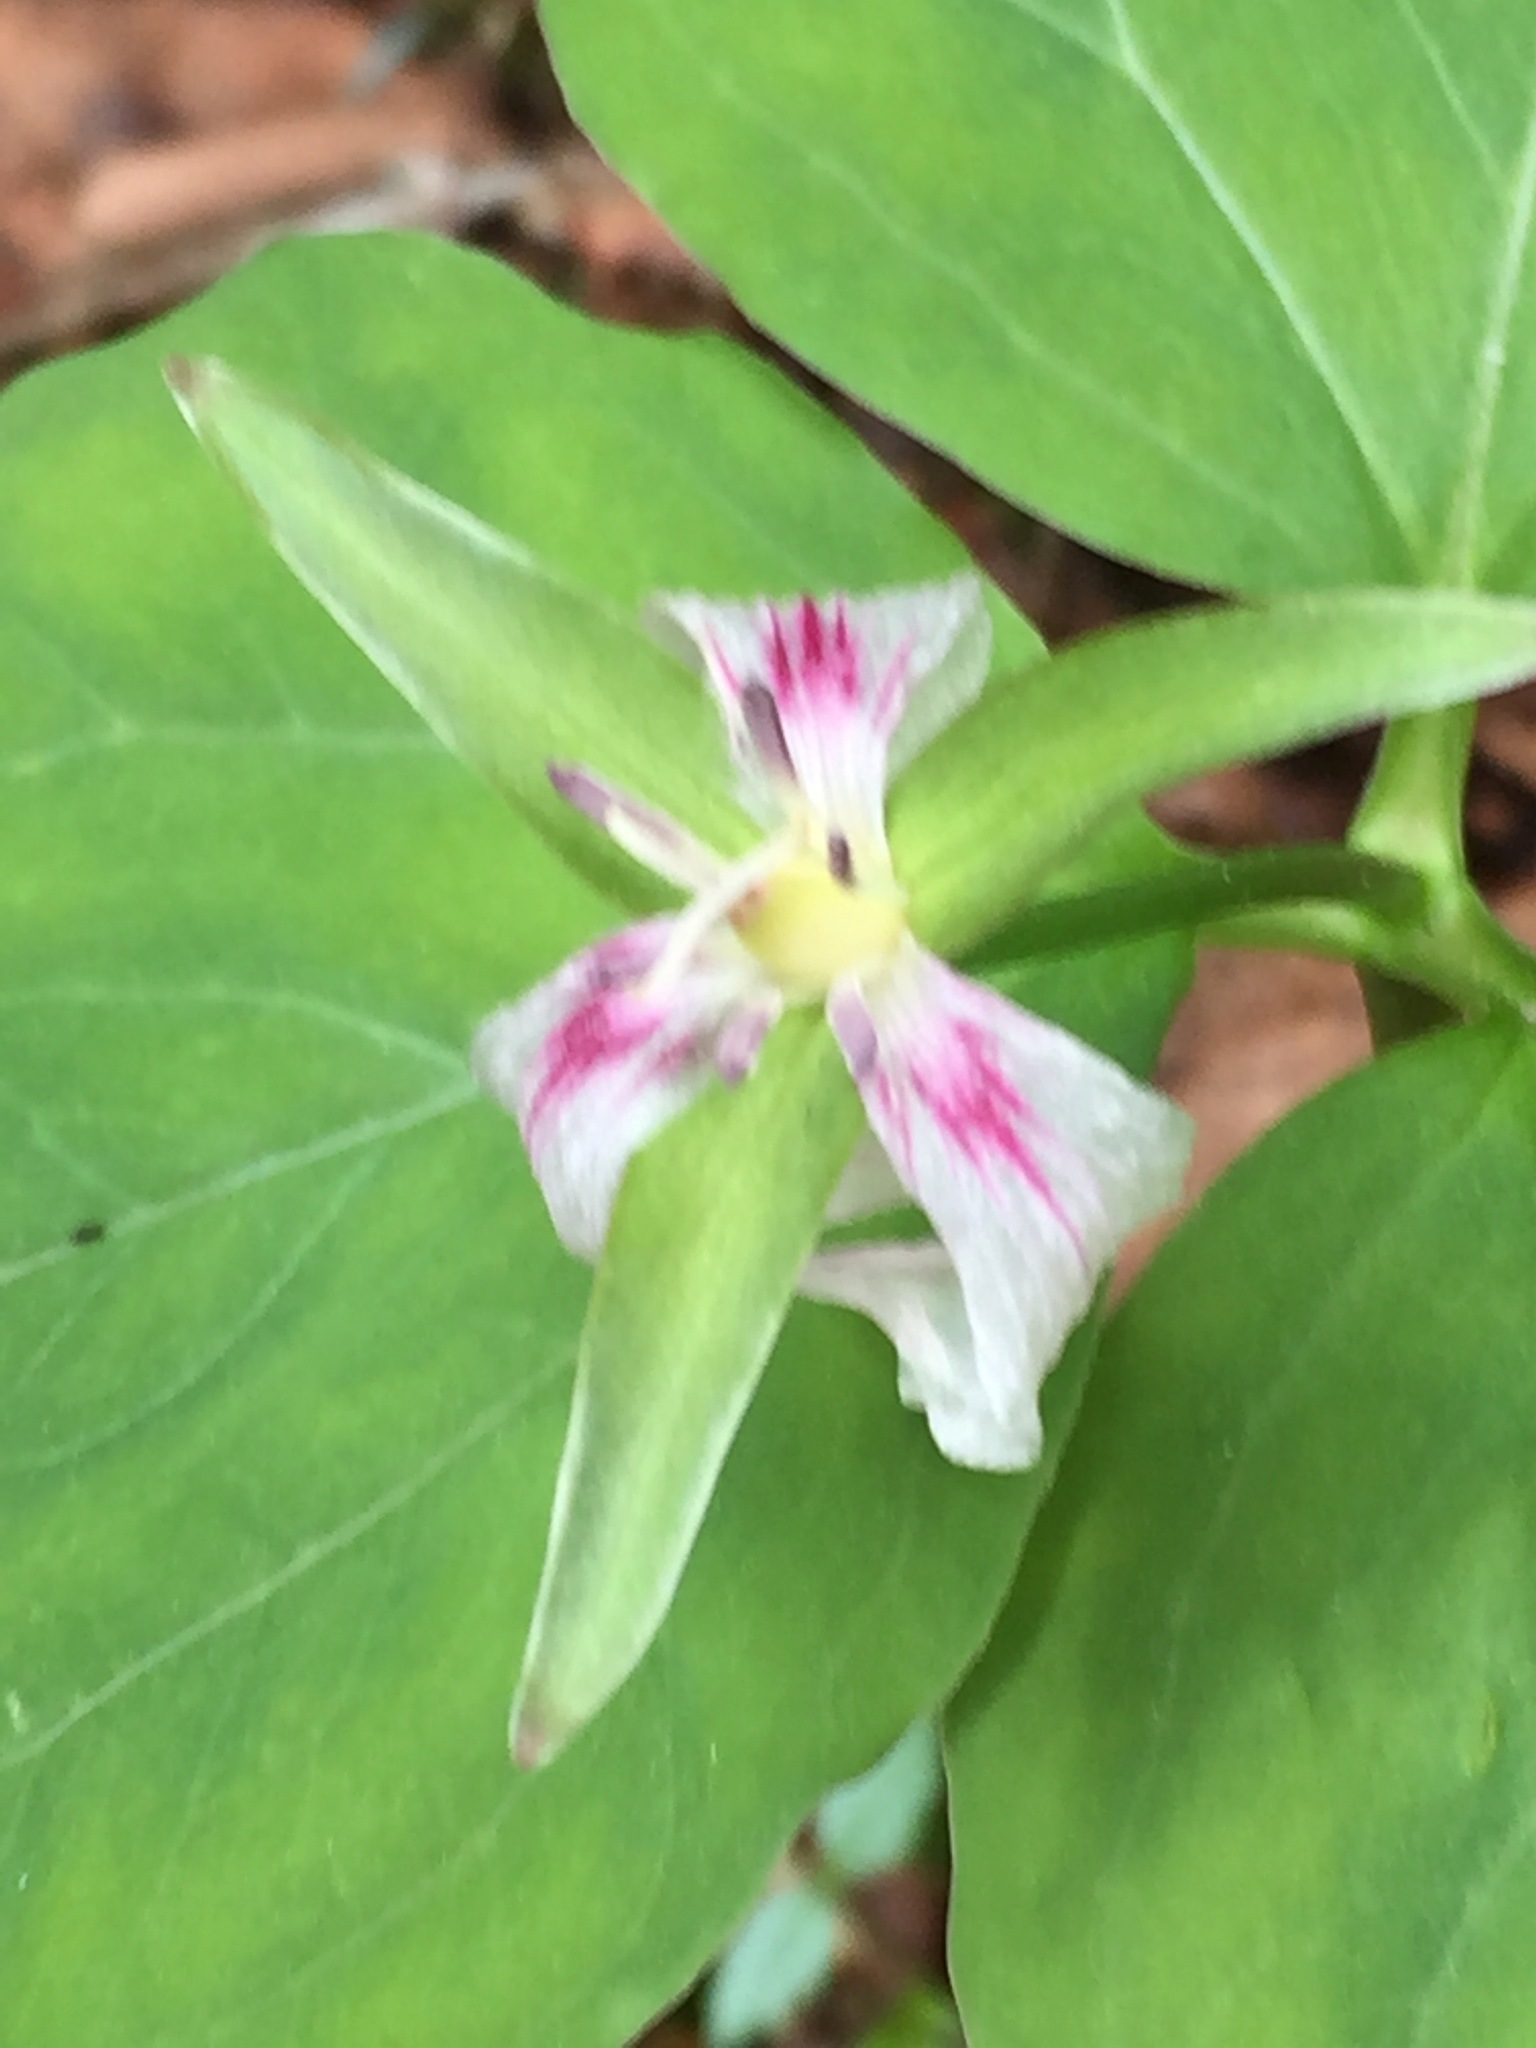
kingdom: Plantae
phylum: Tracheophyta
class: Liliopsida
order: Liliales
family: Melanthiaceae
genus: Trillium
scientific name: Trillium undulatum
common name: Paint trillium
